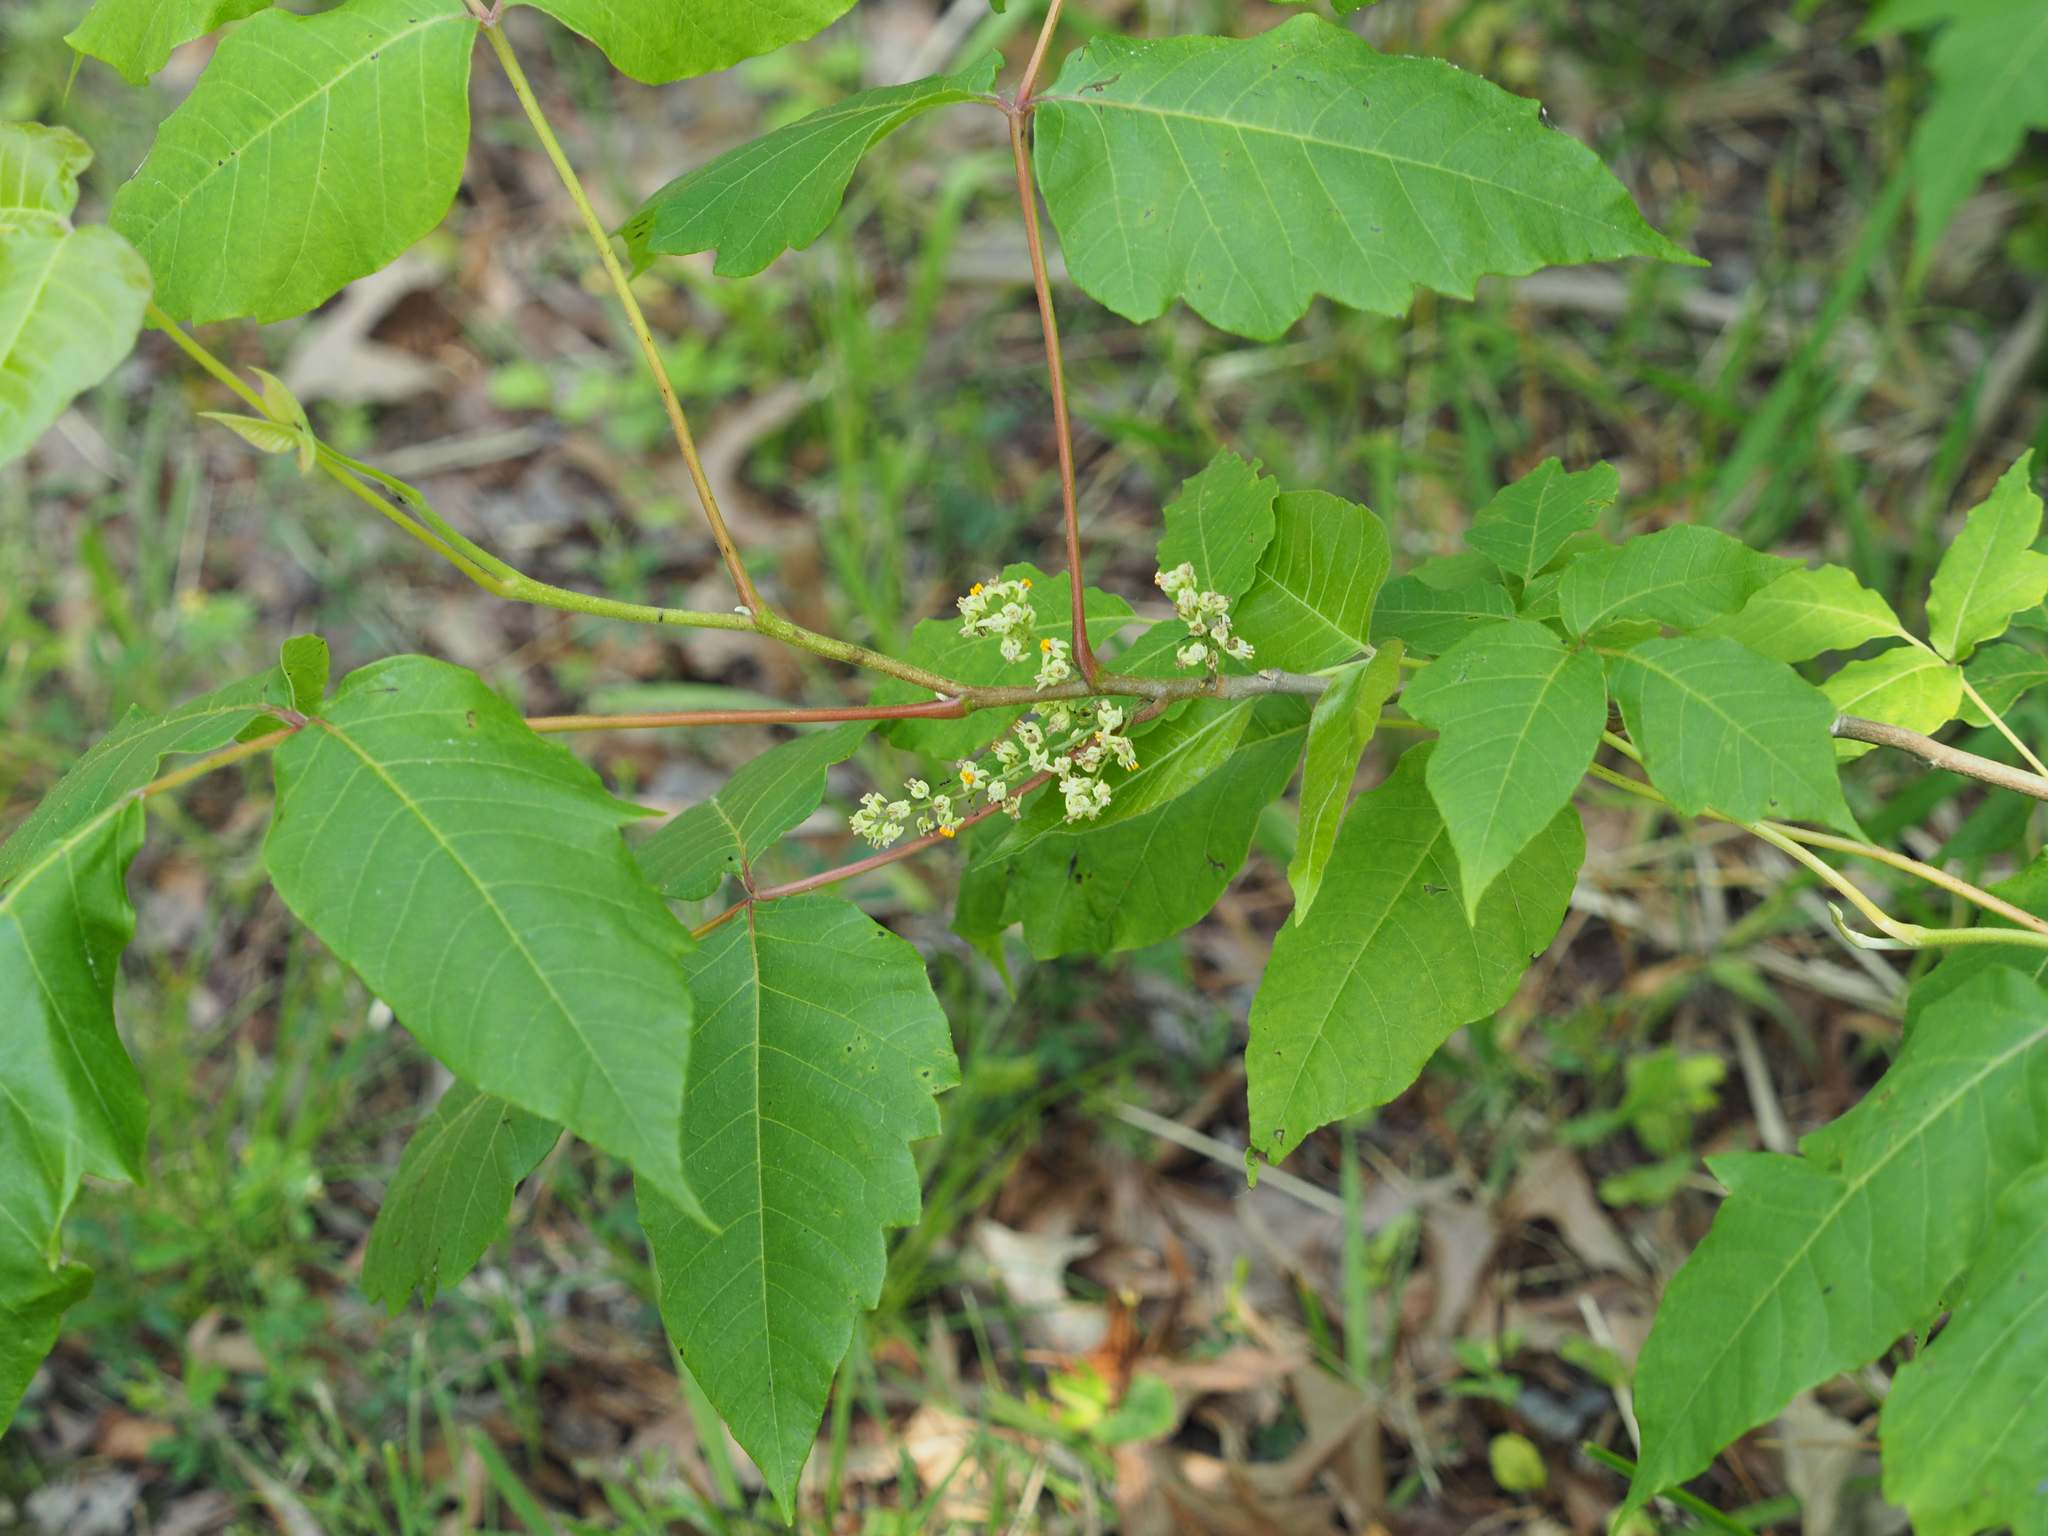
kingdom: Plantae
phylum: Tracheophyta
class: Magnoliopsida
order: Sapindales
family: Anacardiaceae
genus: Toxicodendron
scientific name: Toxicodendron radicans
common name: Poison ivy
